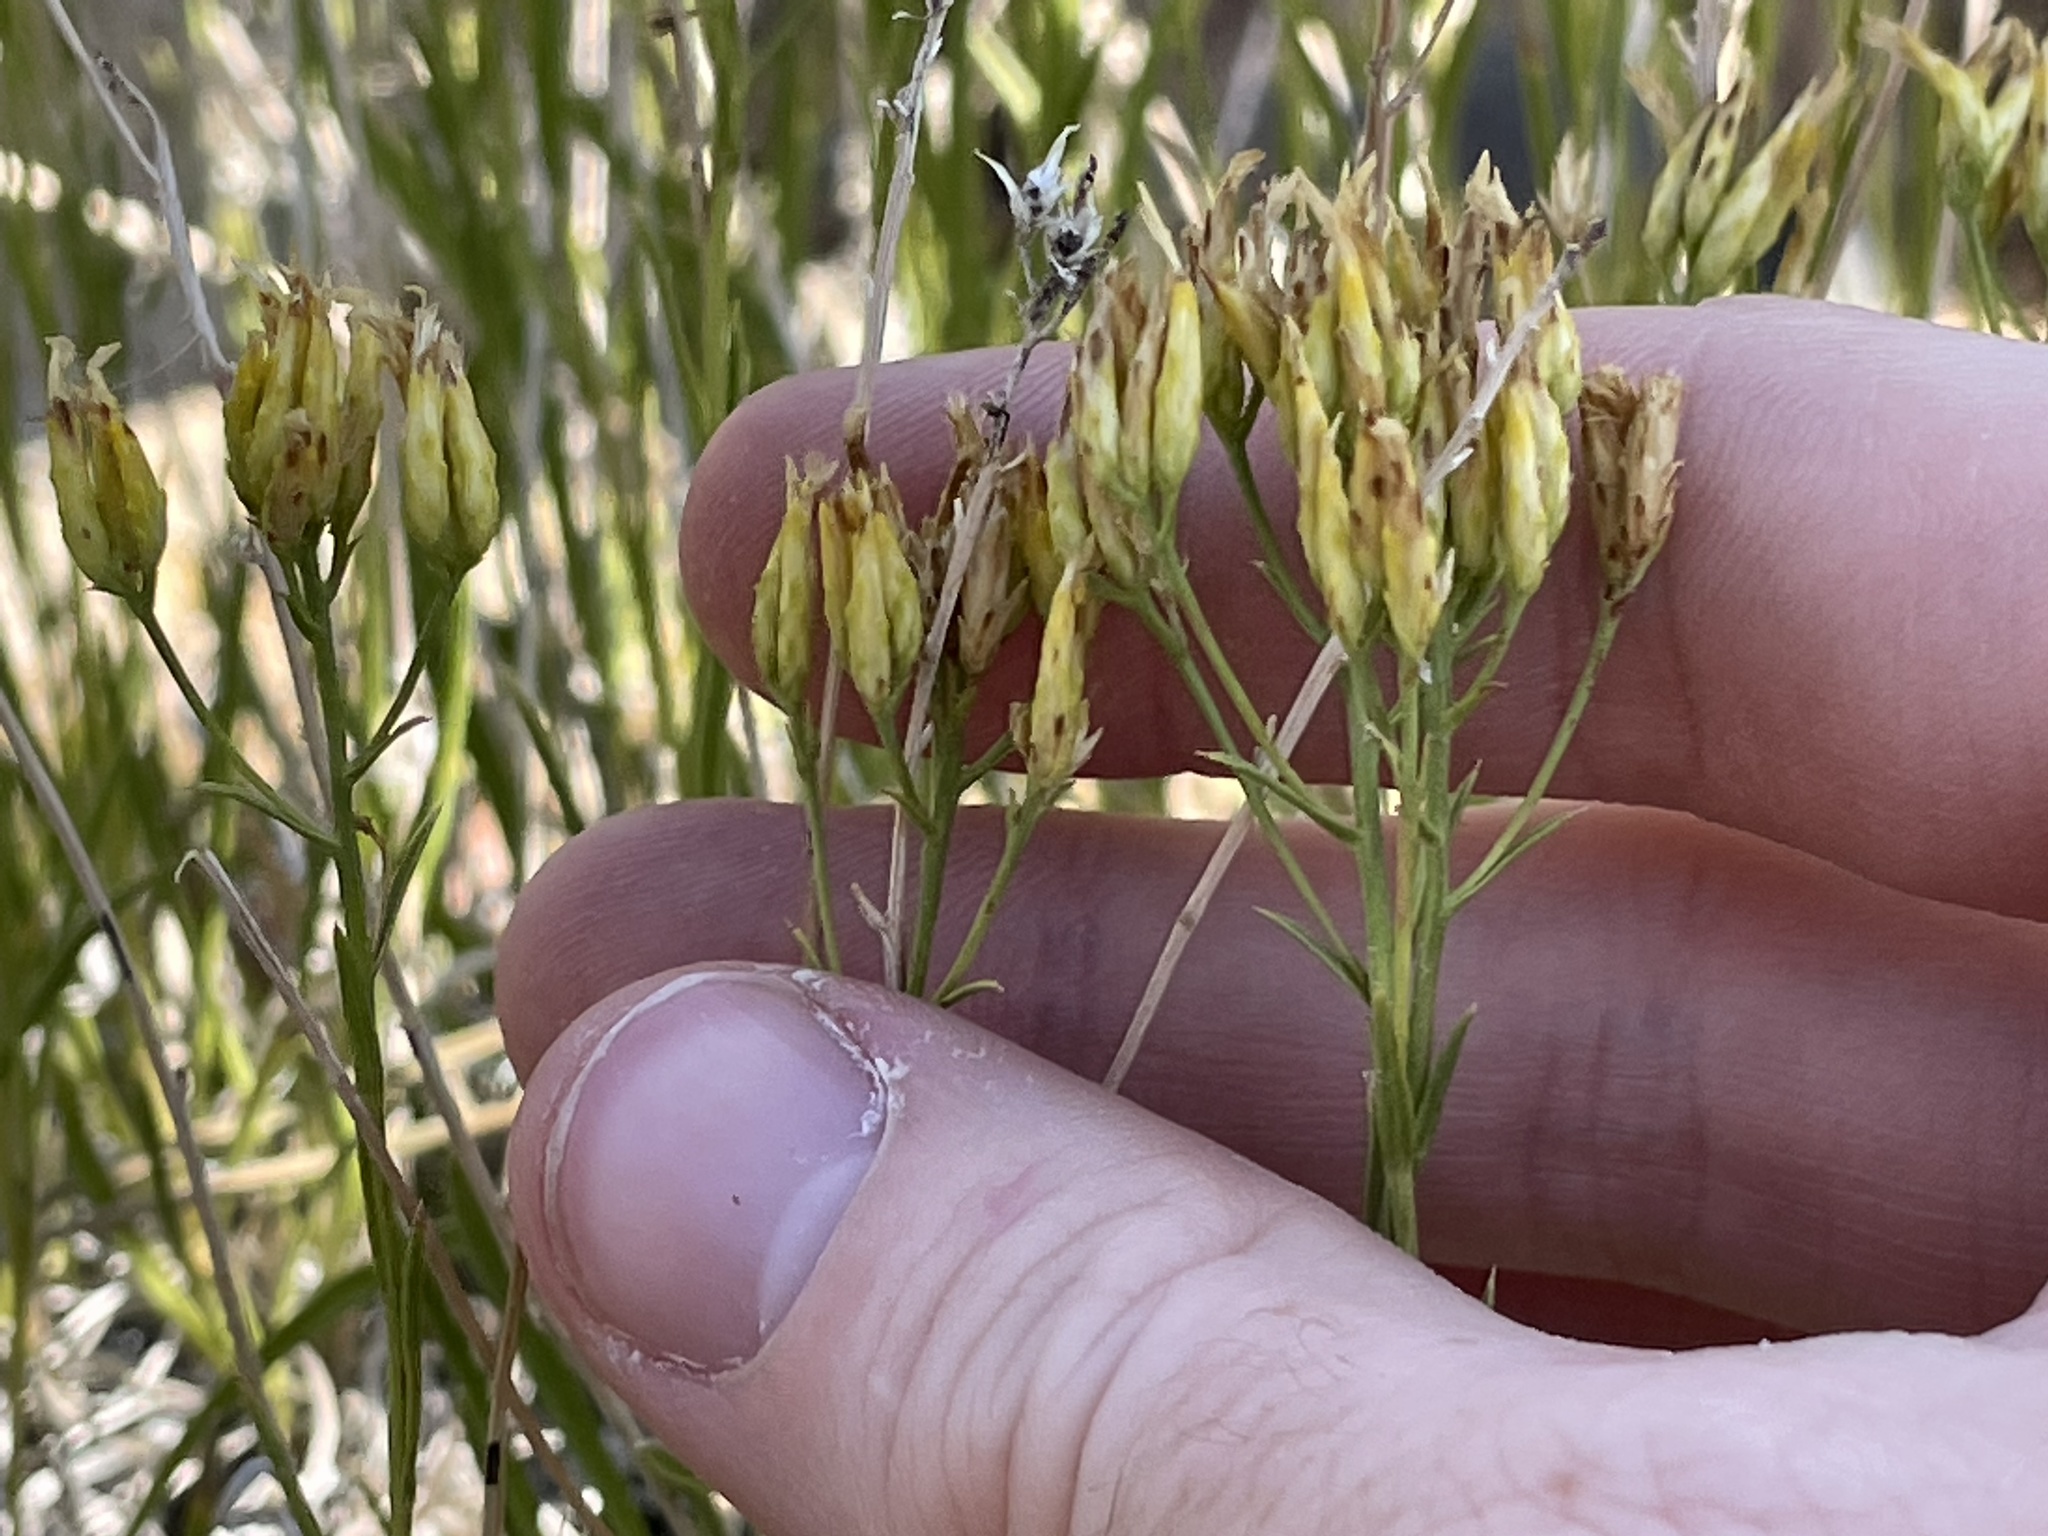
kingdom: Plantae
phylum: Tracheophyta
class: Magnoliopsida
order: Asterales
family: Asteraceae
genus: Petradoria
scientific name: Petradoria pumila
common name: Rock-goldenrod
